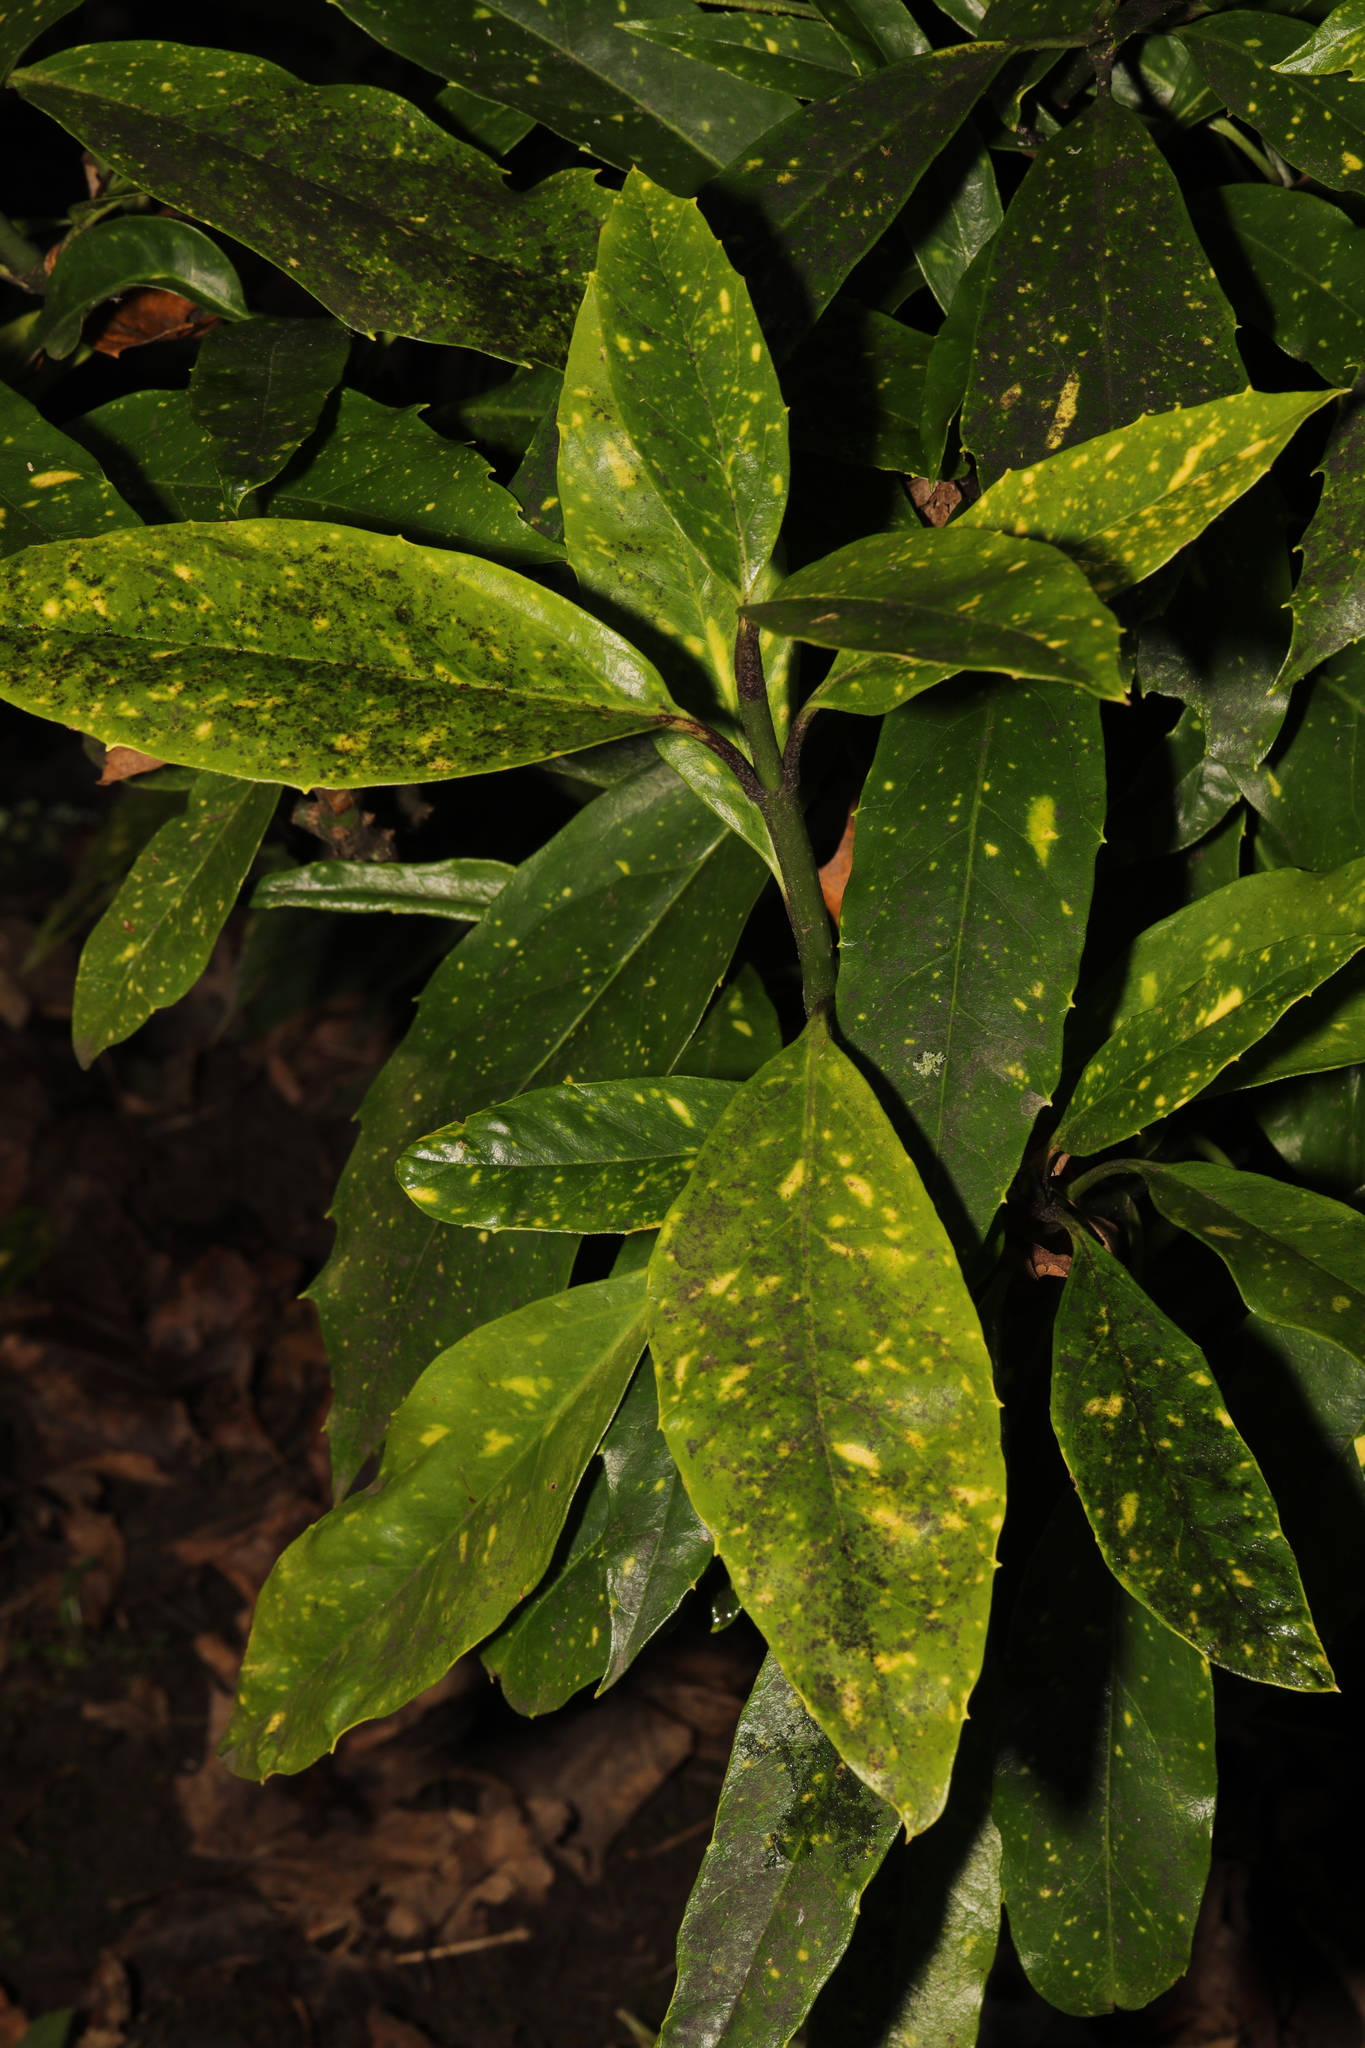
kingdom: Plantae
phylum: Tracheophyta
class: Magnoliopsida
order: Garryales
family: Garryaceae
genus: Aucuba
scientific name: Aucuba japonica
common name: Spotted-laurel
